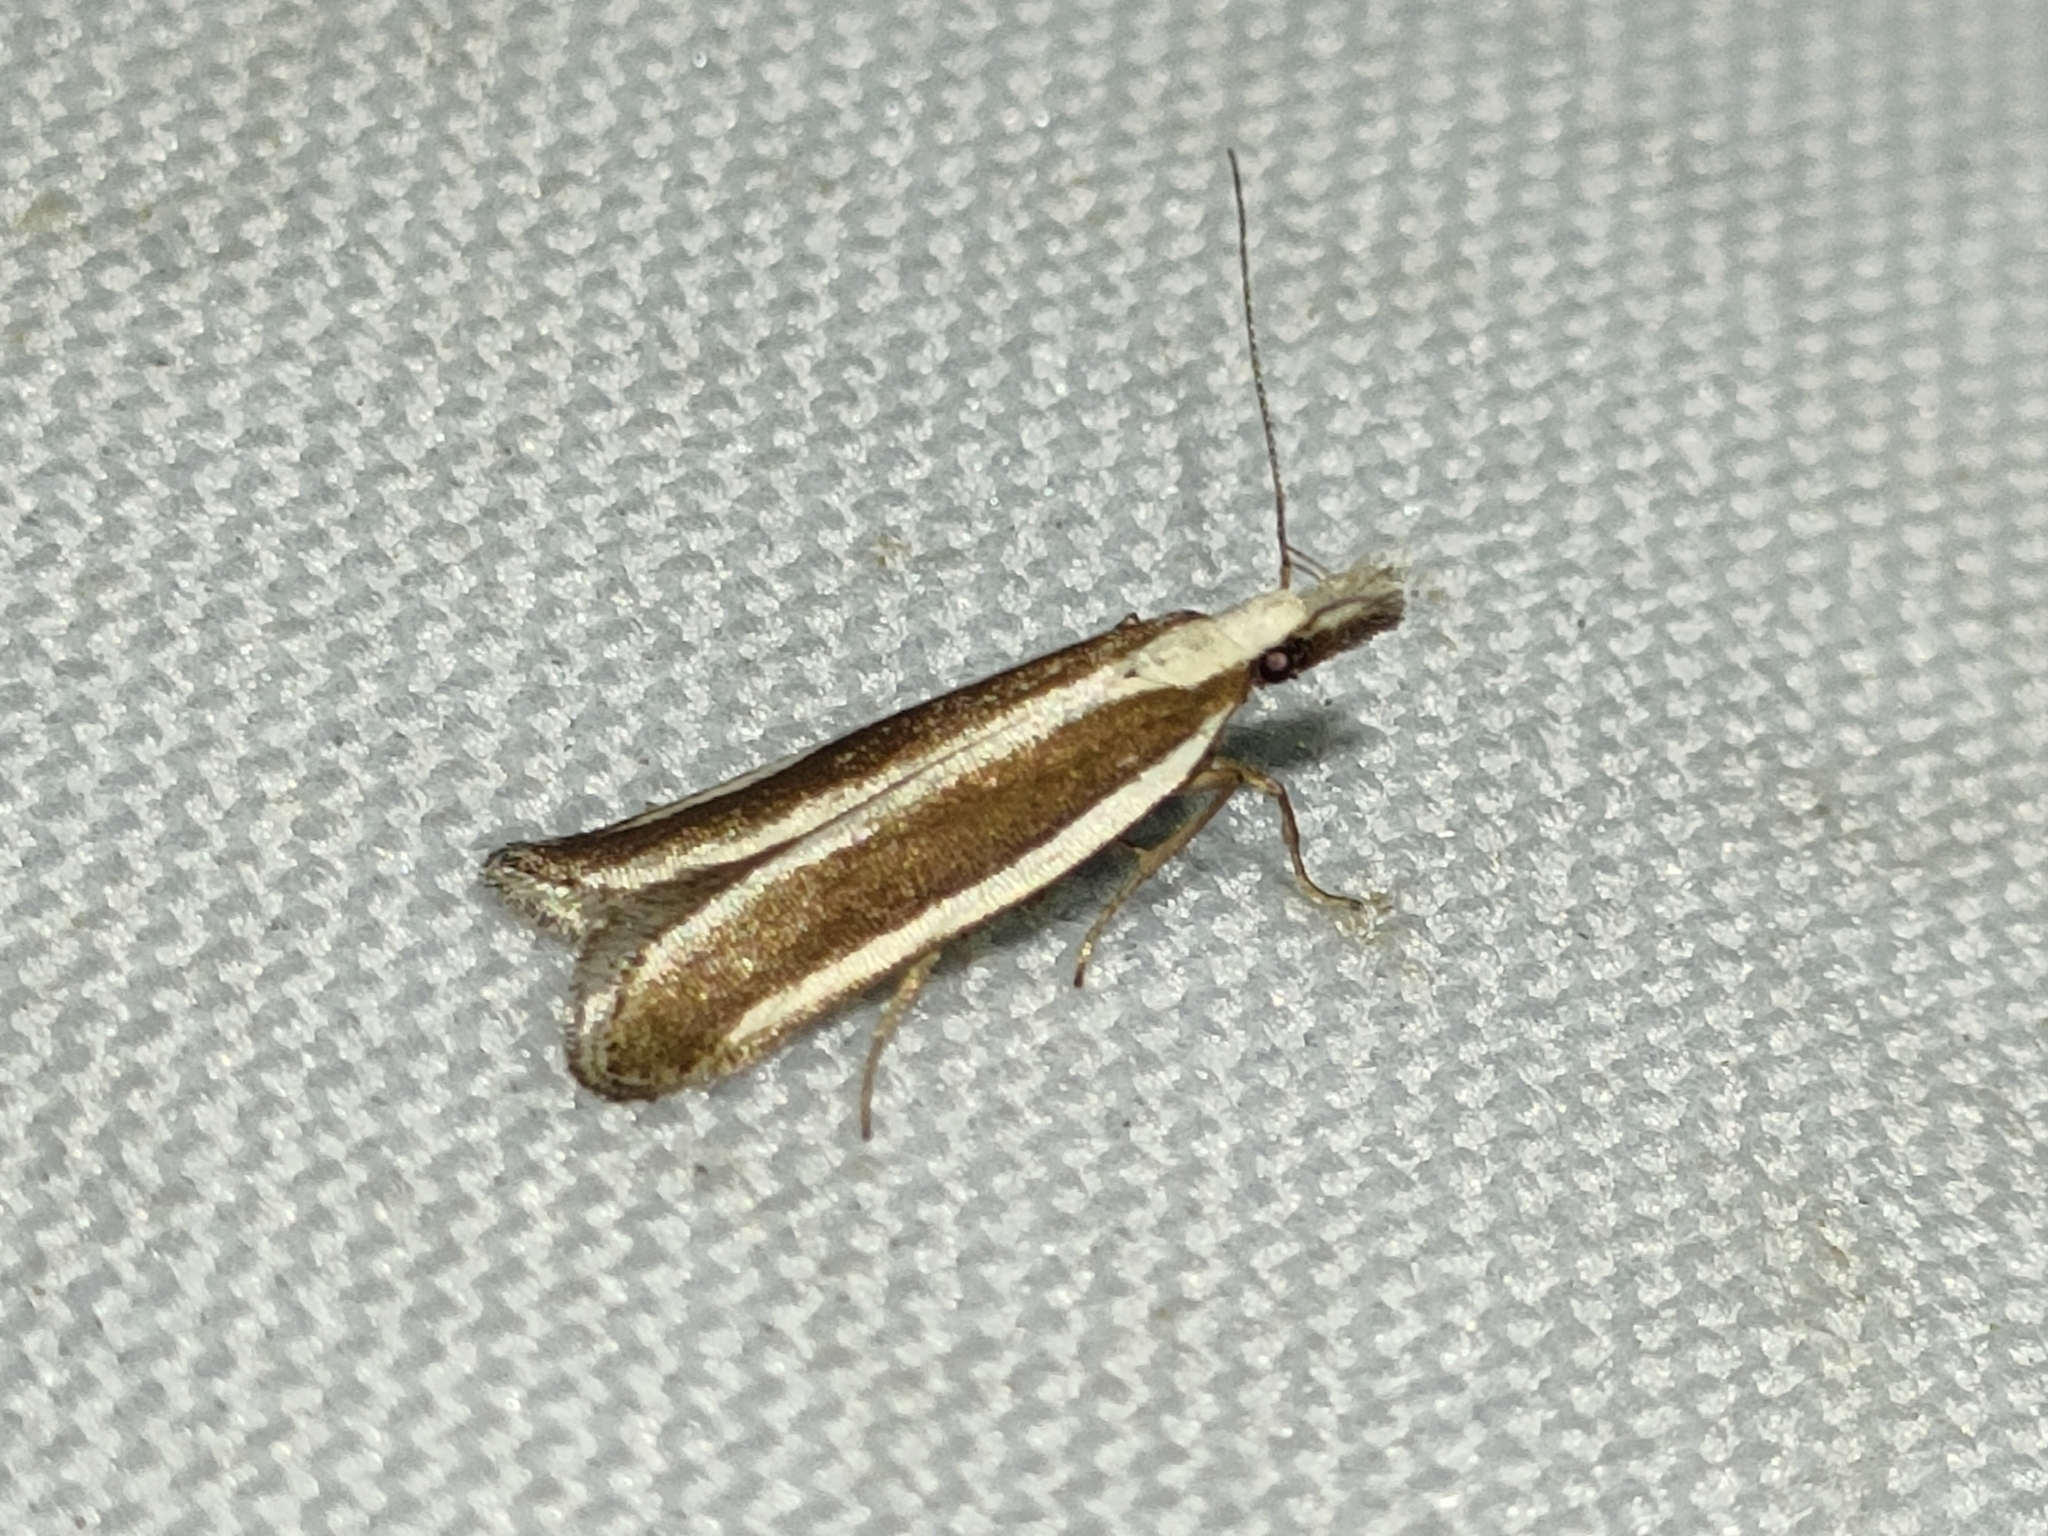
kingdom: Animalia
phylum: Arthropoda
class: Insecta
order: Lepidoptera
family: Gelechiidae
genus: Dichomeris
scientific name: Dichomeris marginella
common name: Juniper webworm
